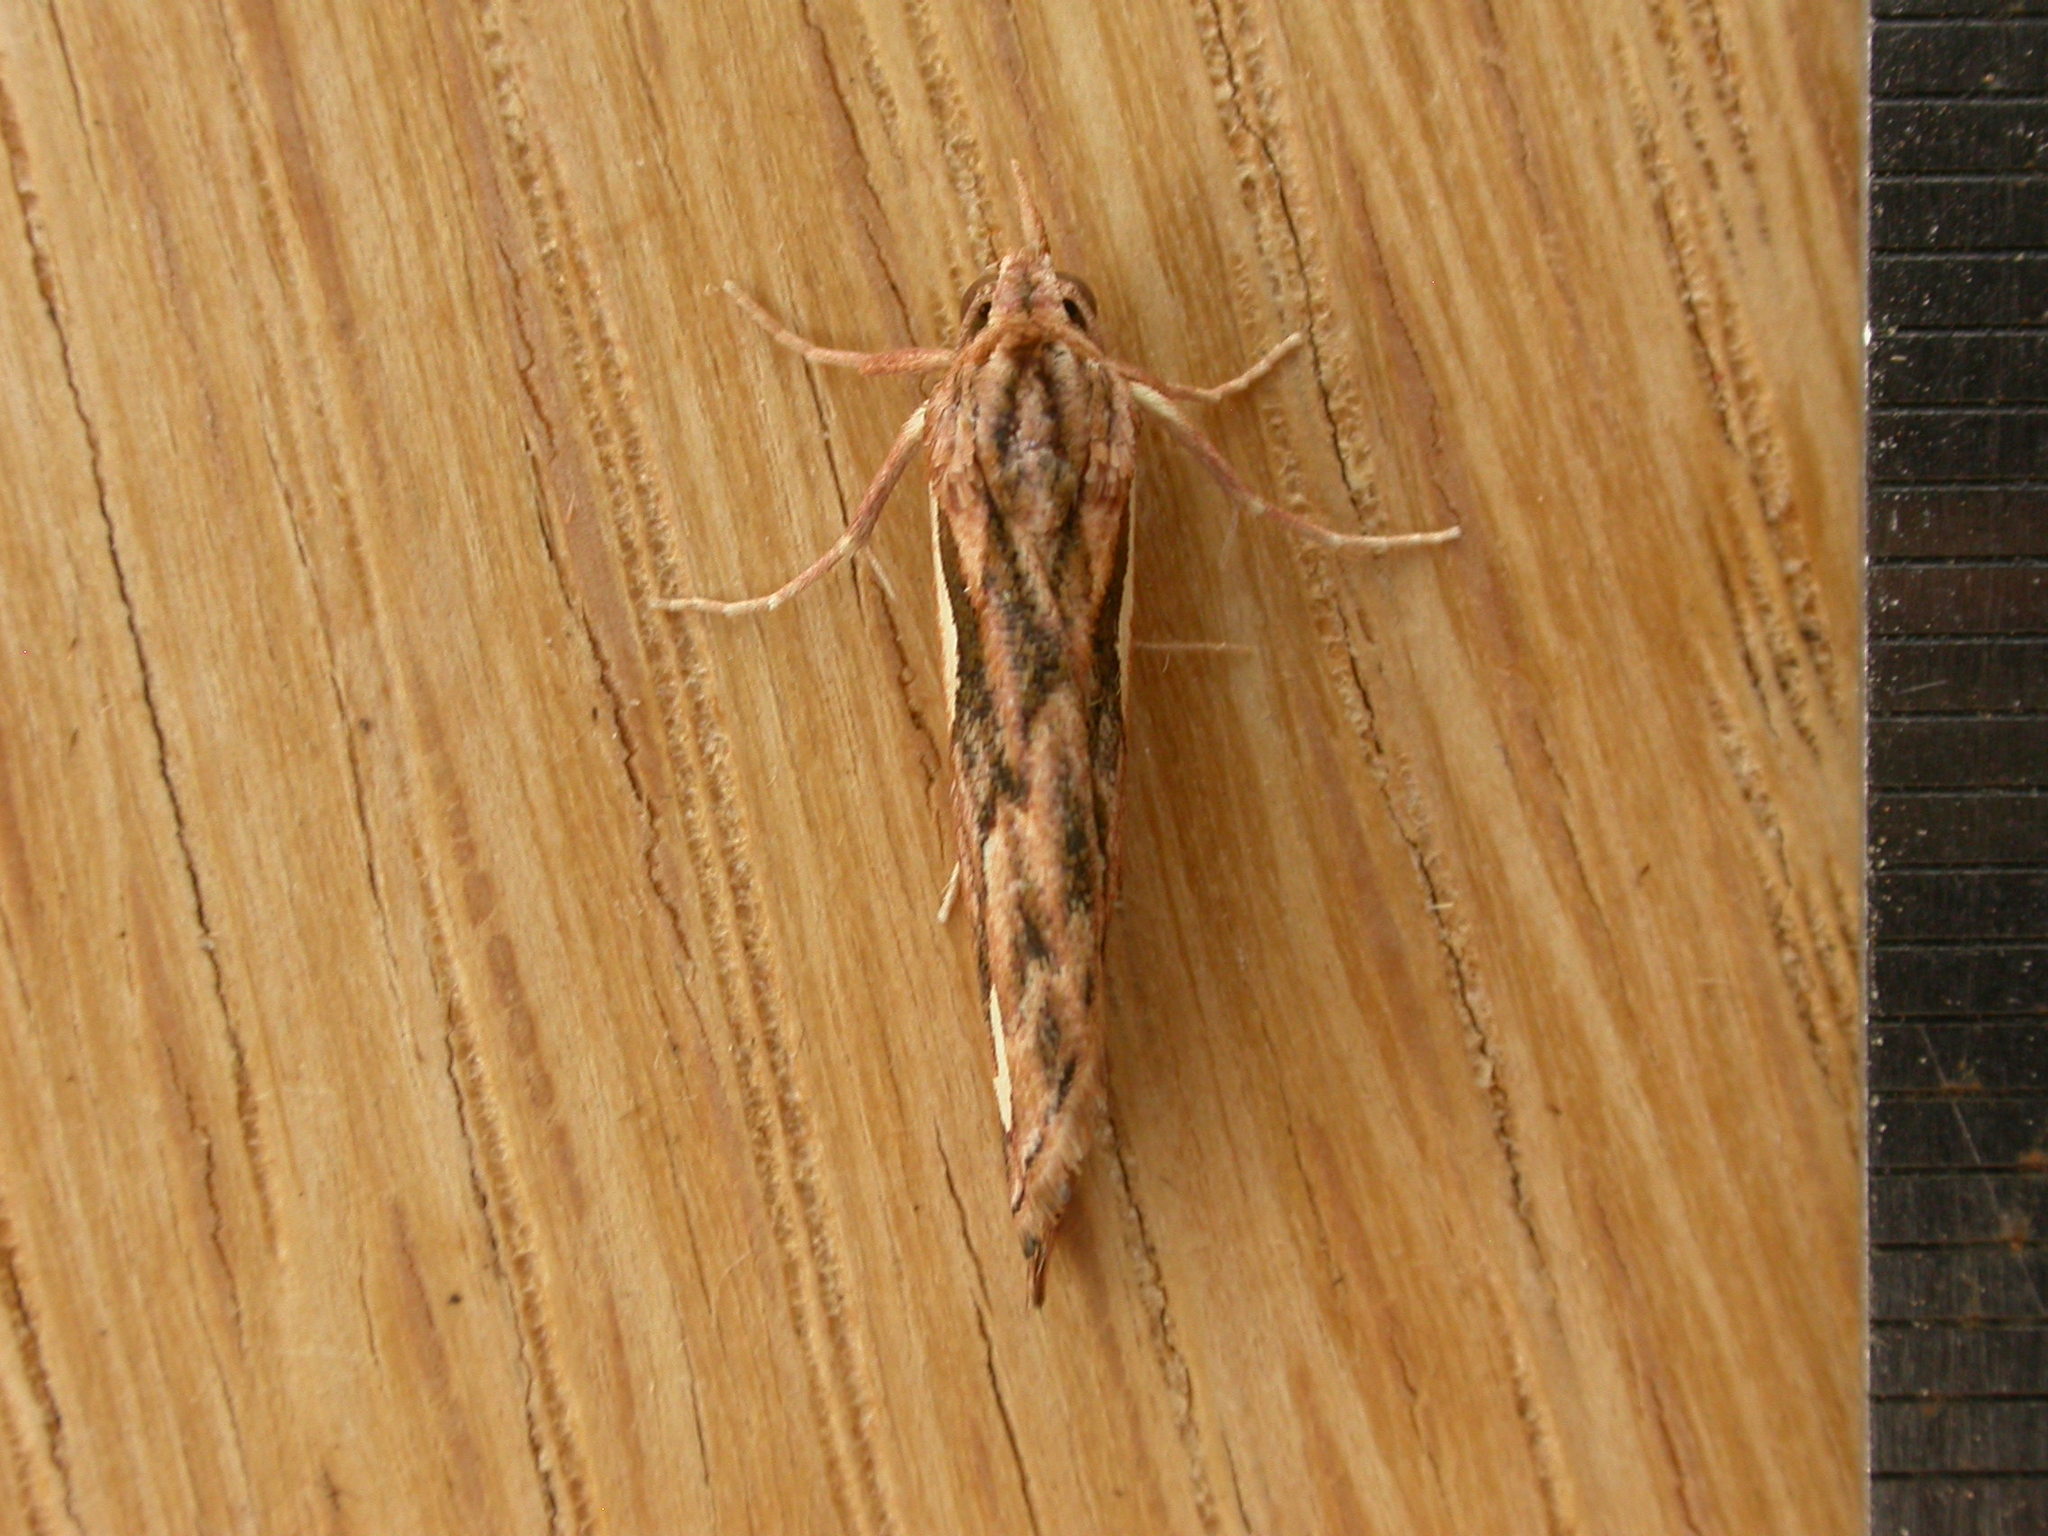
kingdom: Animalia
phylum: Arthropoda
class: Insecta
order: Lepidoptera
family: Erebidae
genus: Meyrickella
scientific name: Meyrickella torquesauria
